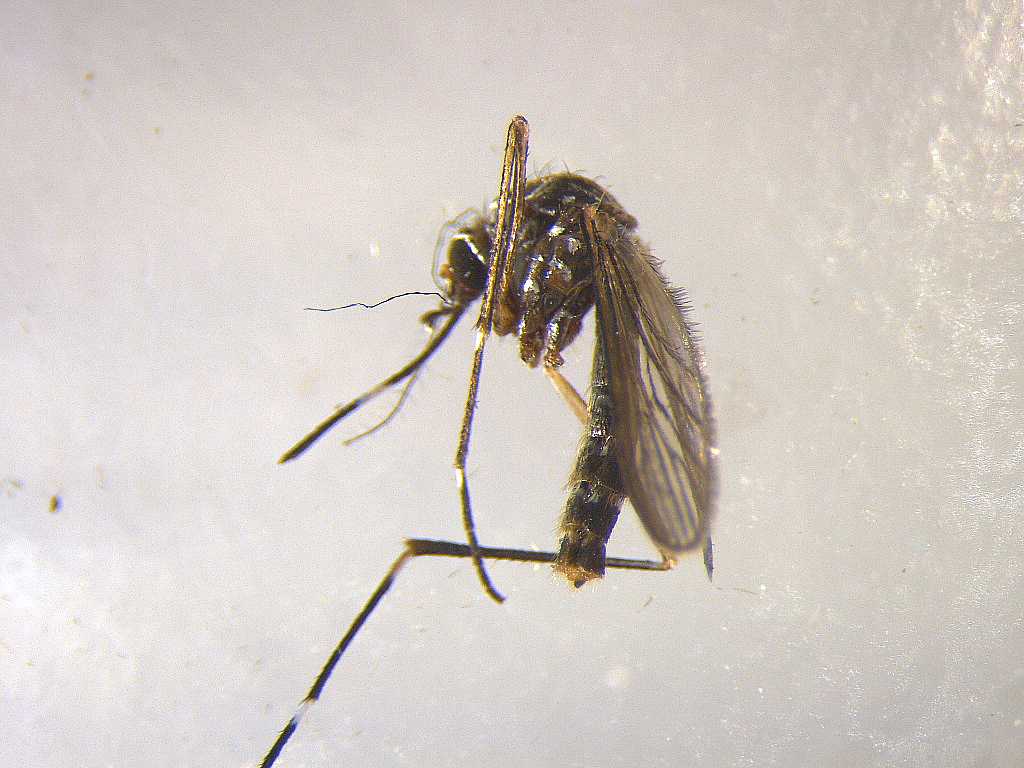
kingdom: Animalia
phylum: Arthropoda
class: Insecta
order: Diptera
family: Culicidae
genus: Aedes
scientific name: Aedes notoscriptus
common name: Australian backyard mosquito
